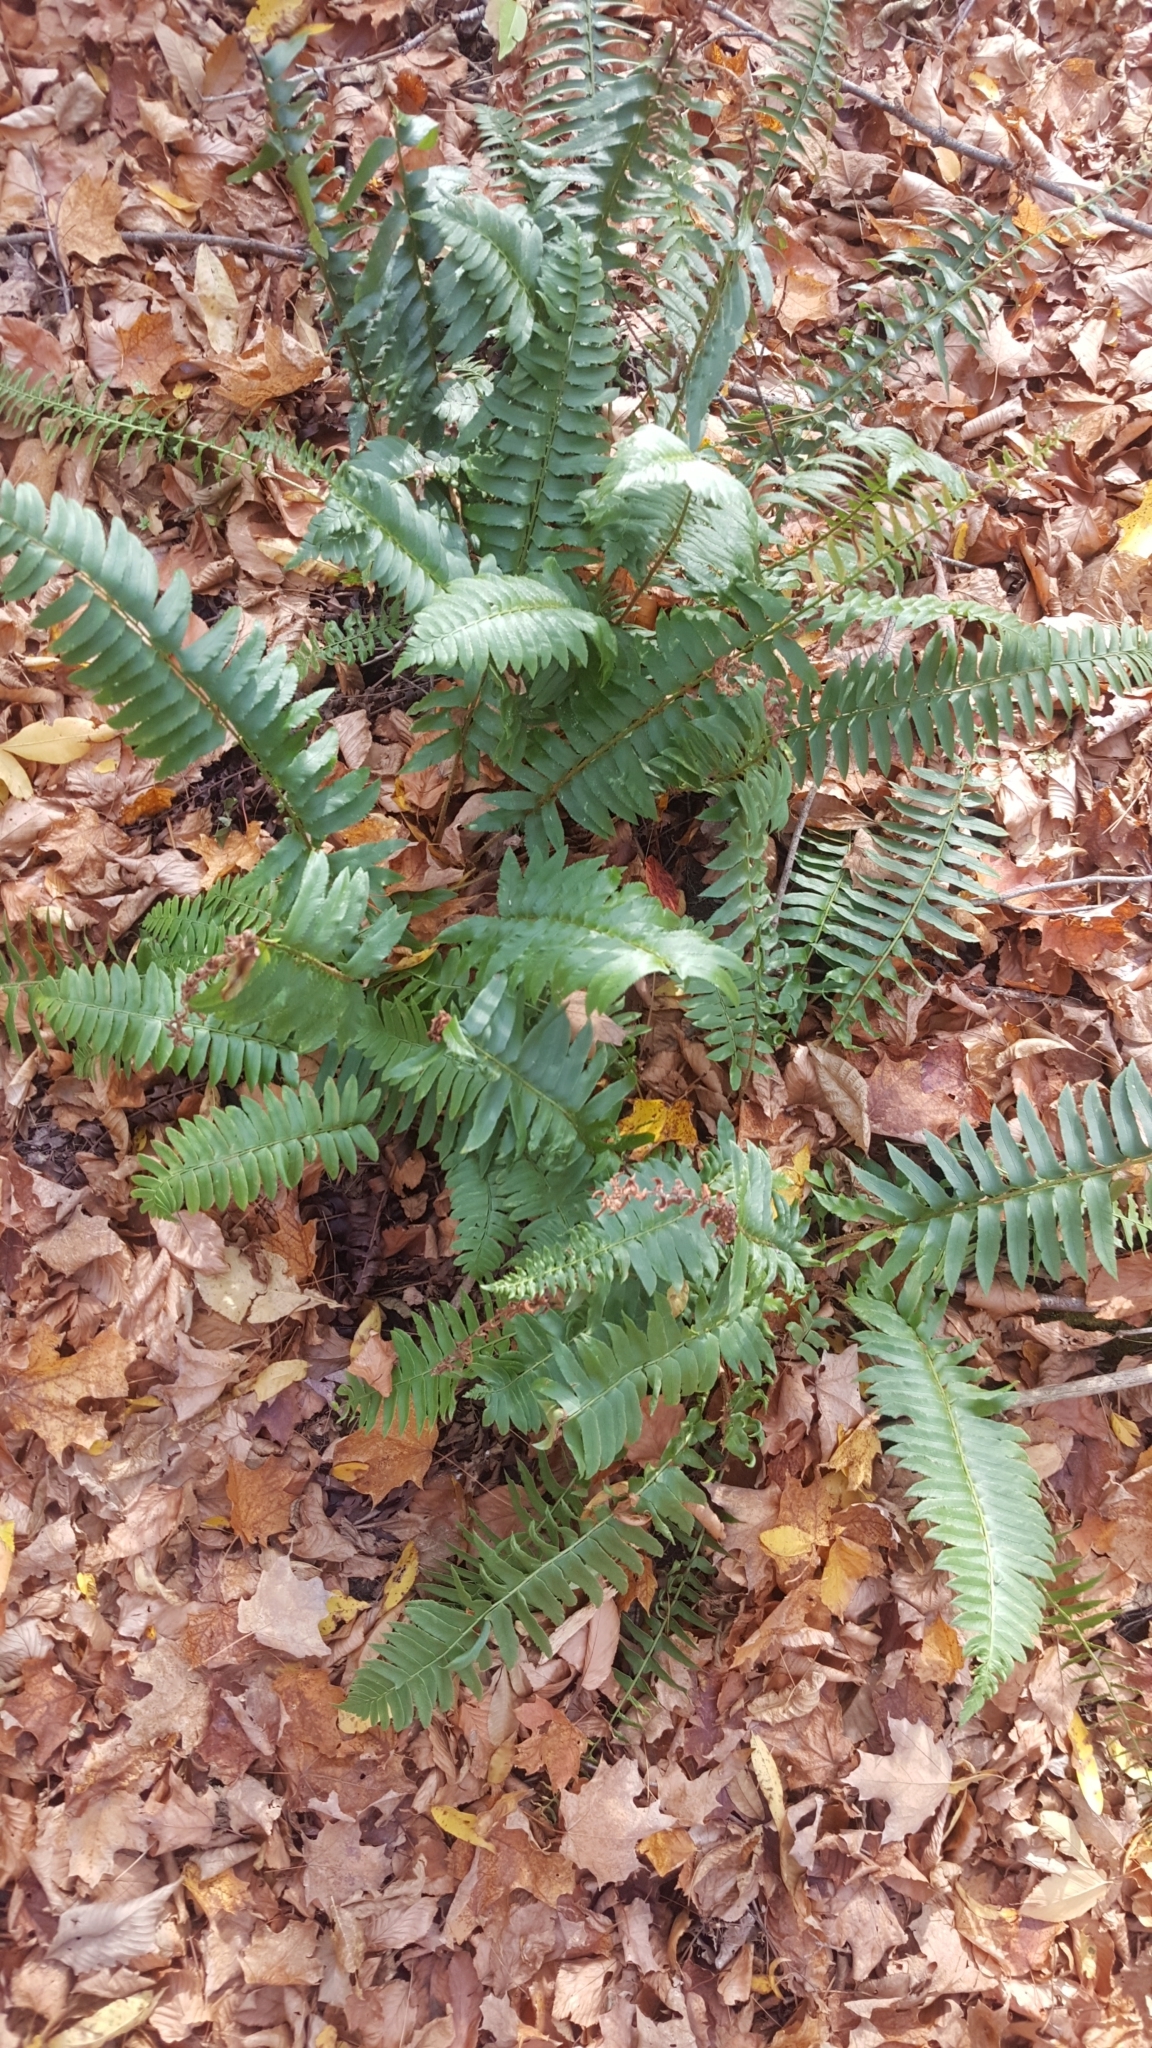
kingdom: Plantae
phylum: Tracheophyta
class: Polypodiopsida
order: Polypodiales
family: Dryopteridaceae
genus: Polystichum
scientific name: Polystichum acrostichoides
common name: Christmas fern
